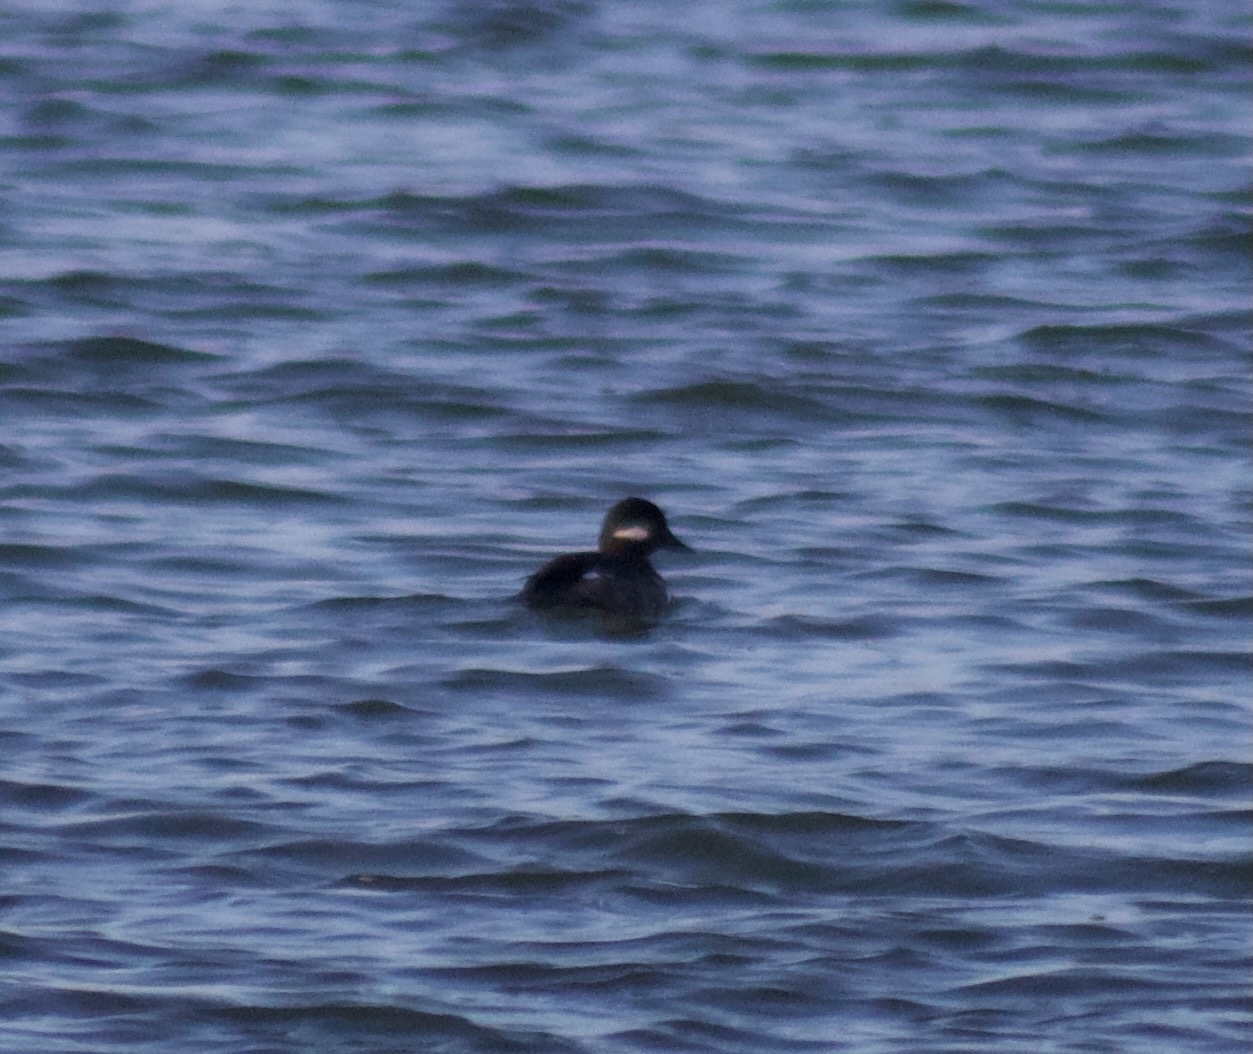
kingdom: Animalia
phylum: Chordata
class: Aves
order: Anseriformes
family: Anatidae
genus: Bucephala
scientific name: Bucephala albeola
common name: Bufflehead
